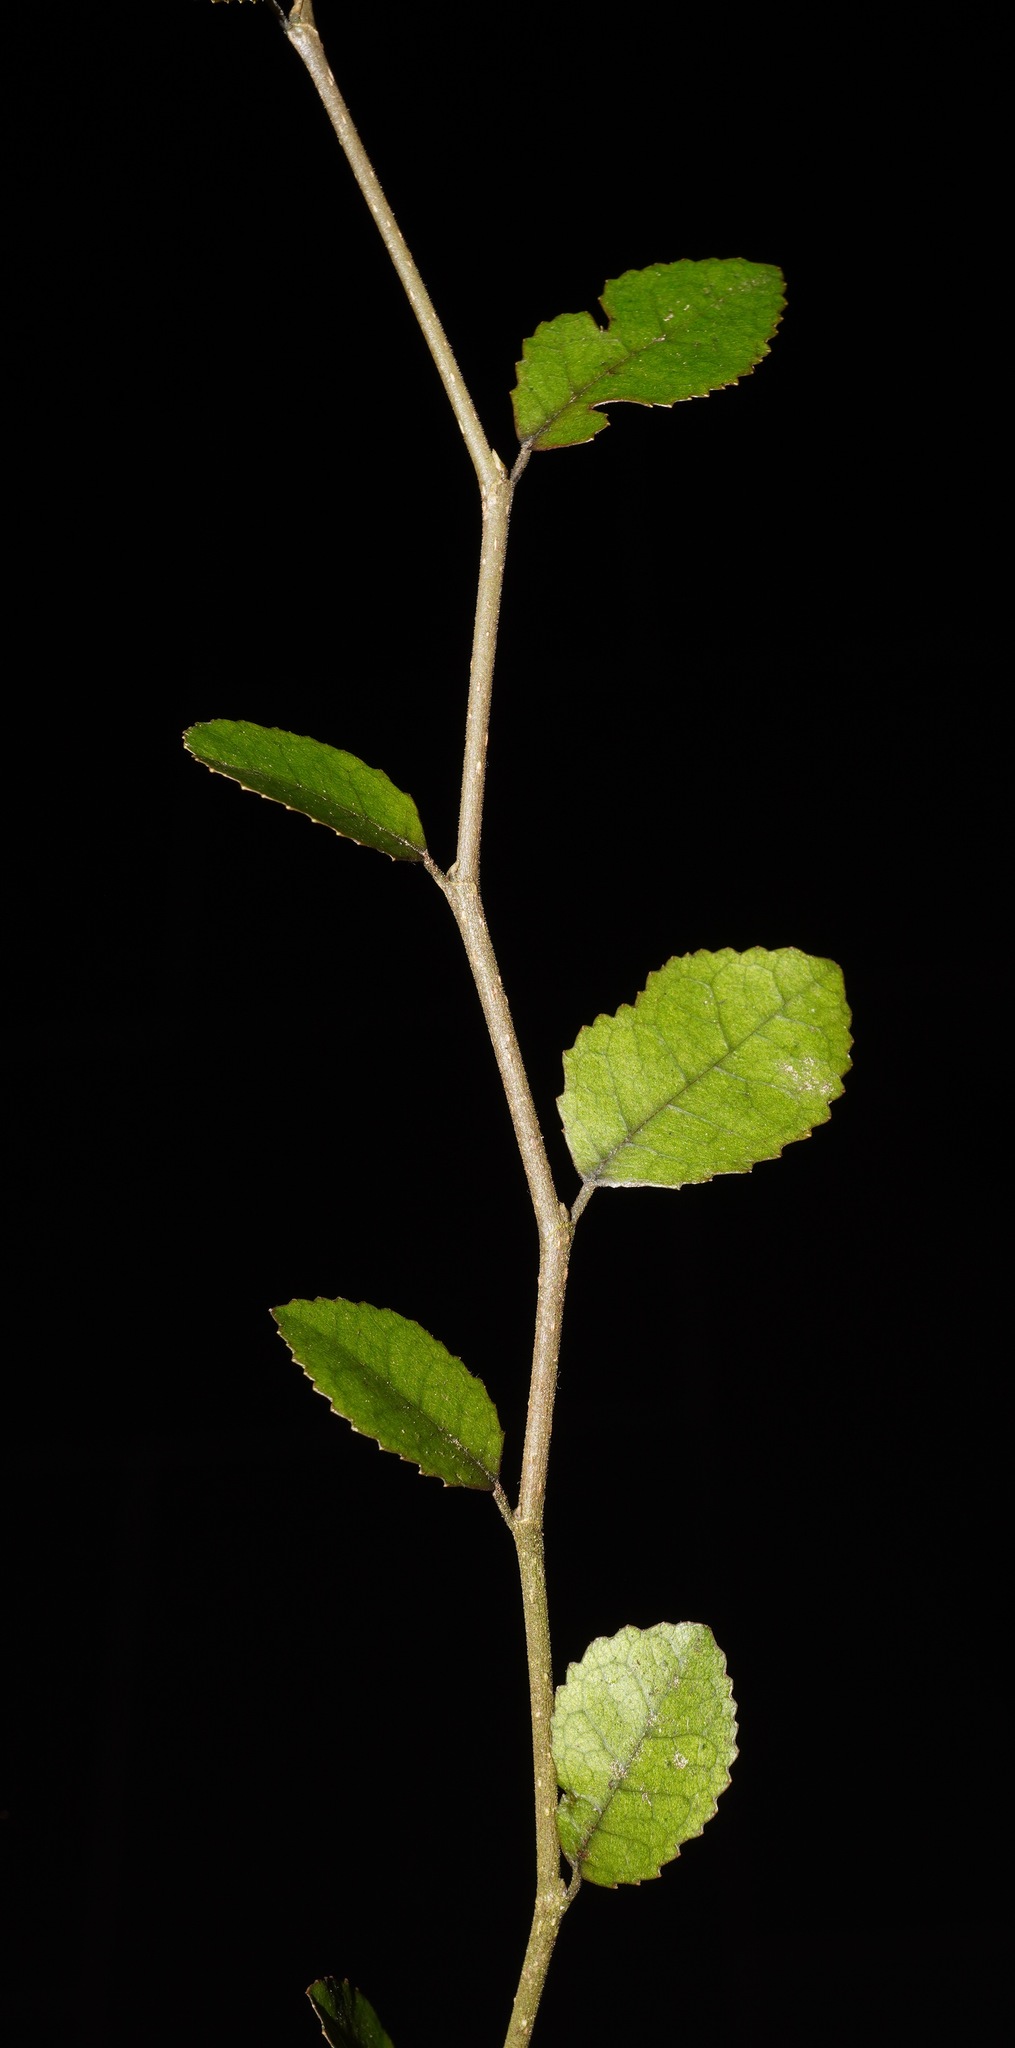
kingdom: Plantae
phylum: Tracheophyta
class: Magnoliopsida
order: Rosales
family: Moraceae
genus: Paratrophis
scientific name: Paratrophis microphylla
